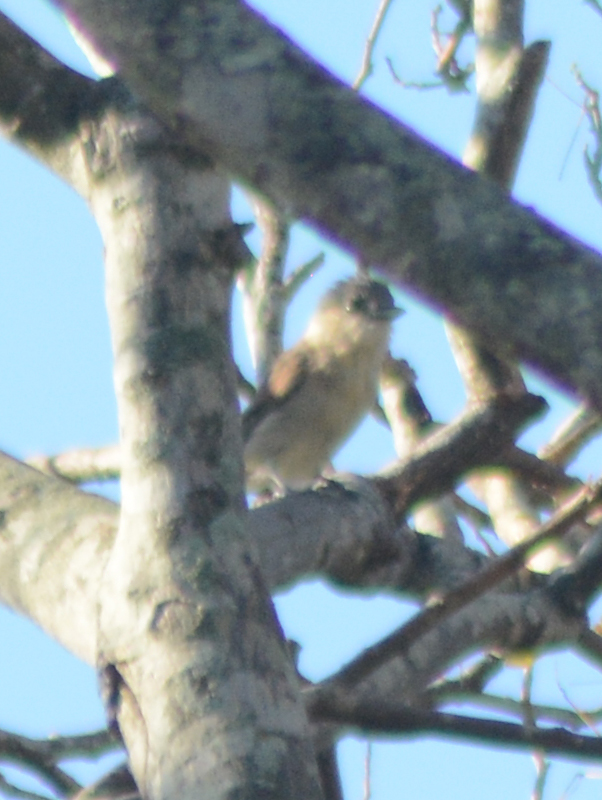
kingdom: Animalia
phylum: Chordata
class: Aves
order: Passeriformes
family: Cotingidae
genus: Pachyramphus
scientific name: Pachyramphus aglaiae
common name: Rose-throated becard
